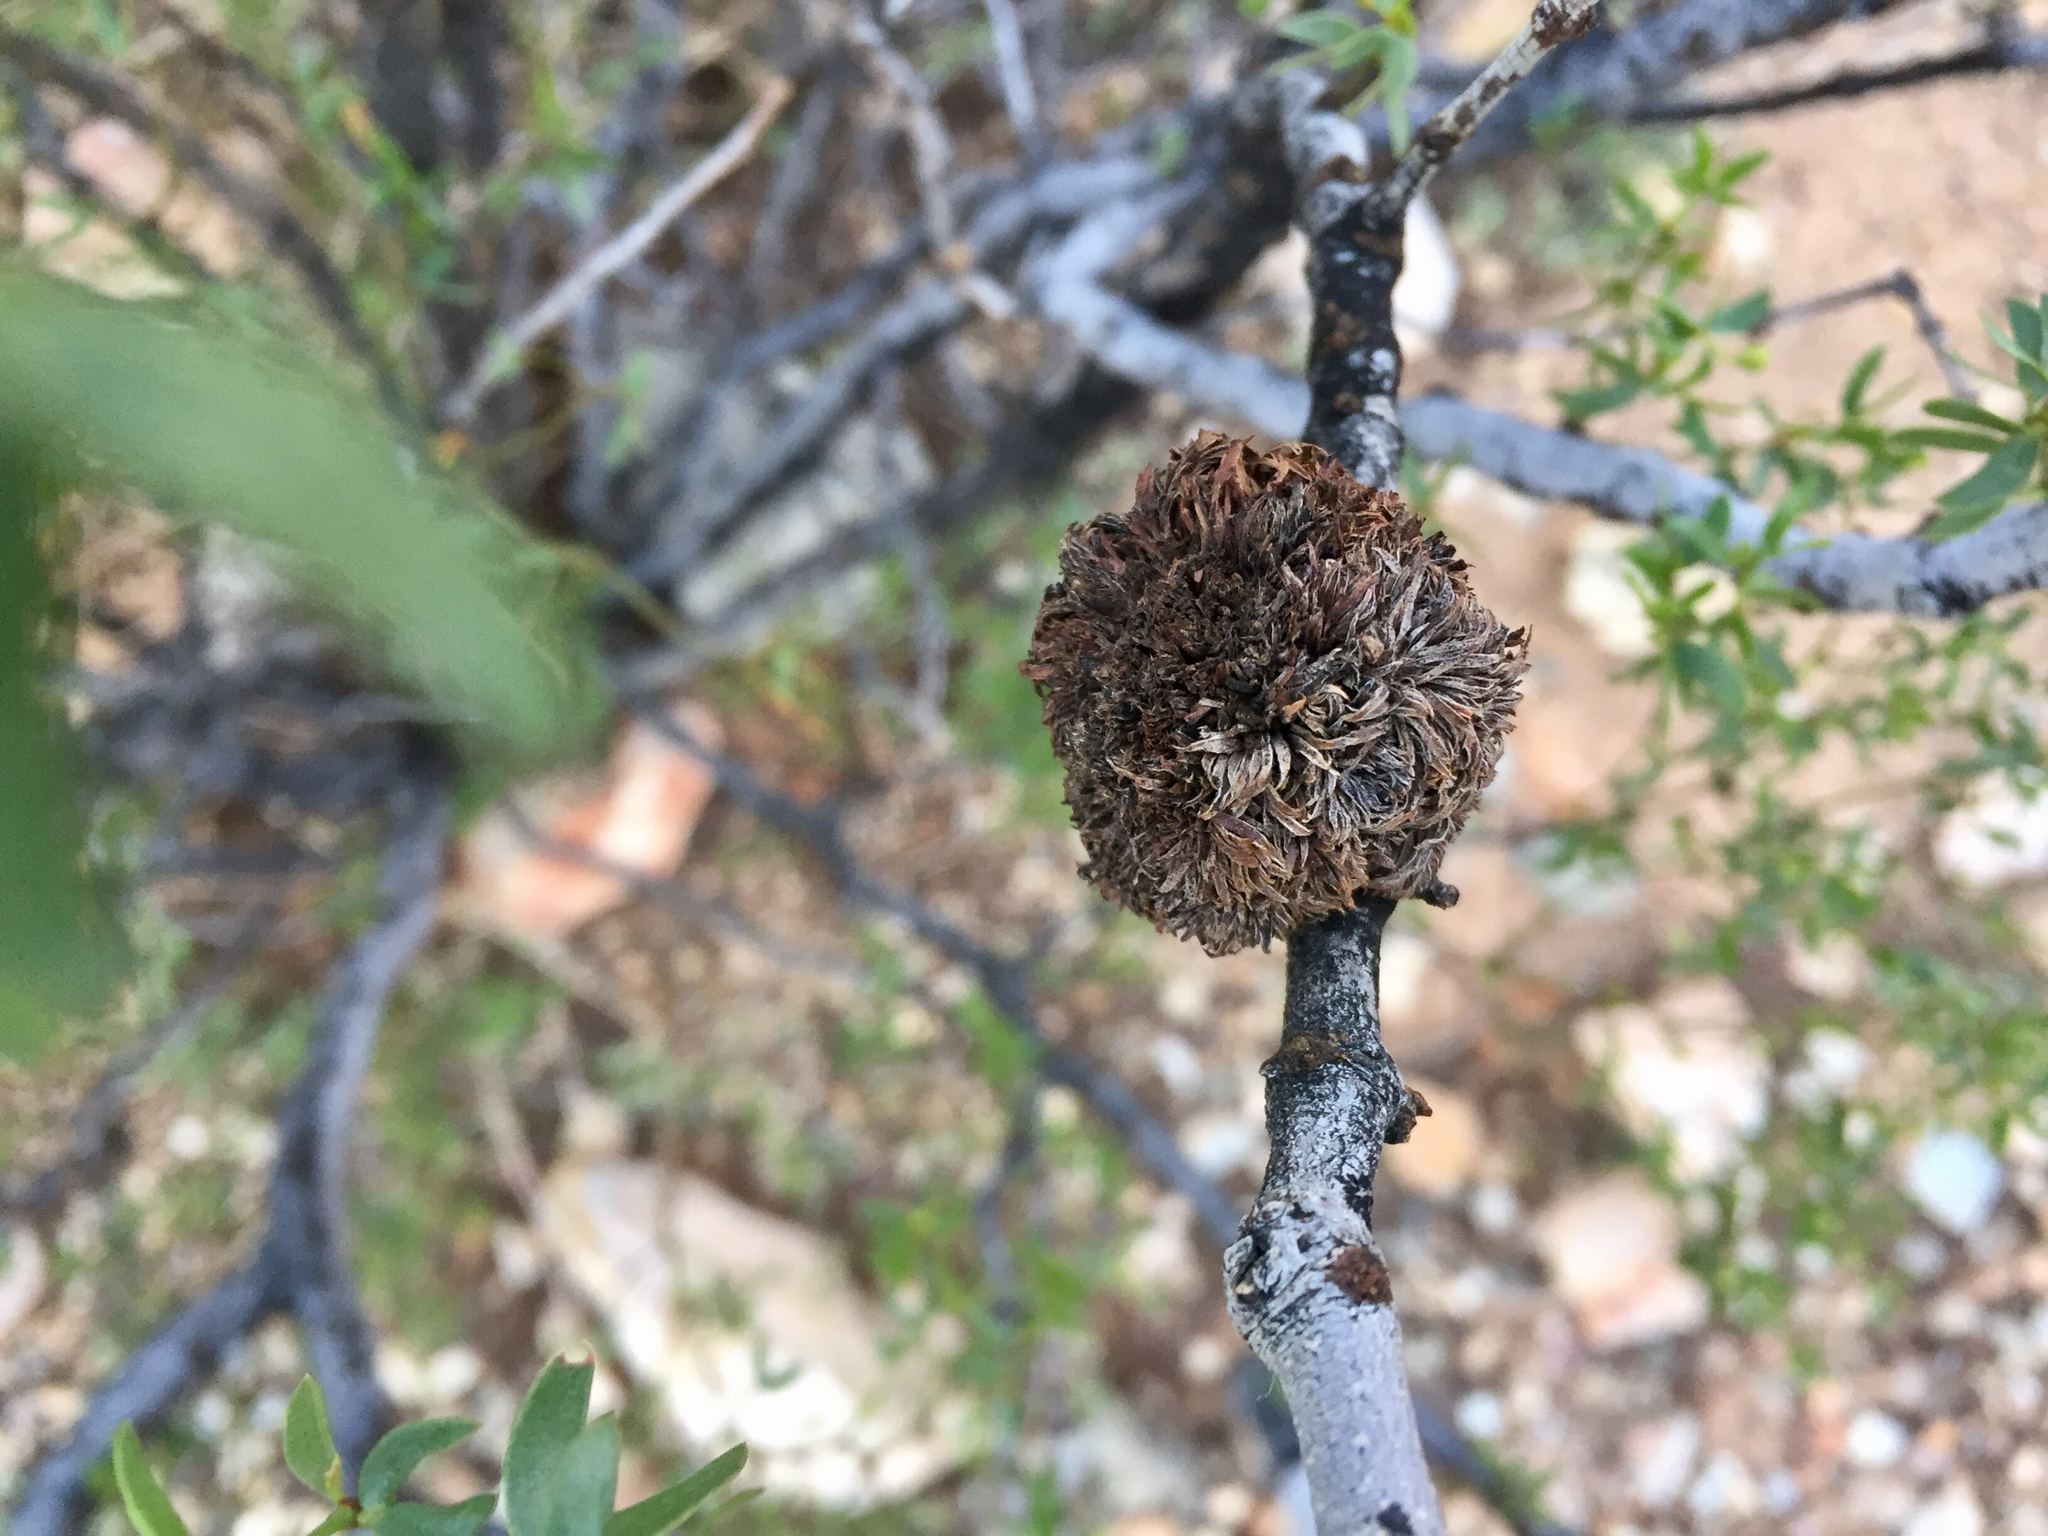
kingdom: Animalia
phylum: Arthropoda
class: Insecta
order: Diptera
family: Cecidomyiidae
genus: Asphondylia
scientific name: Asphondylia auripila
